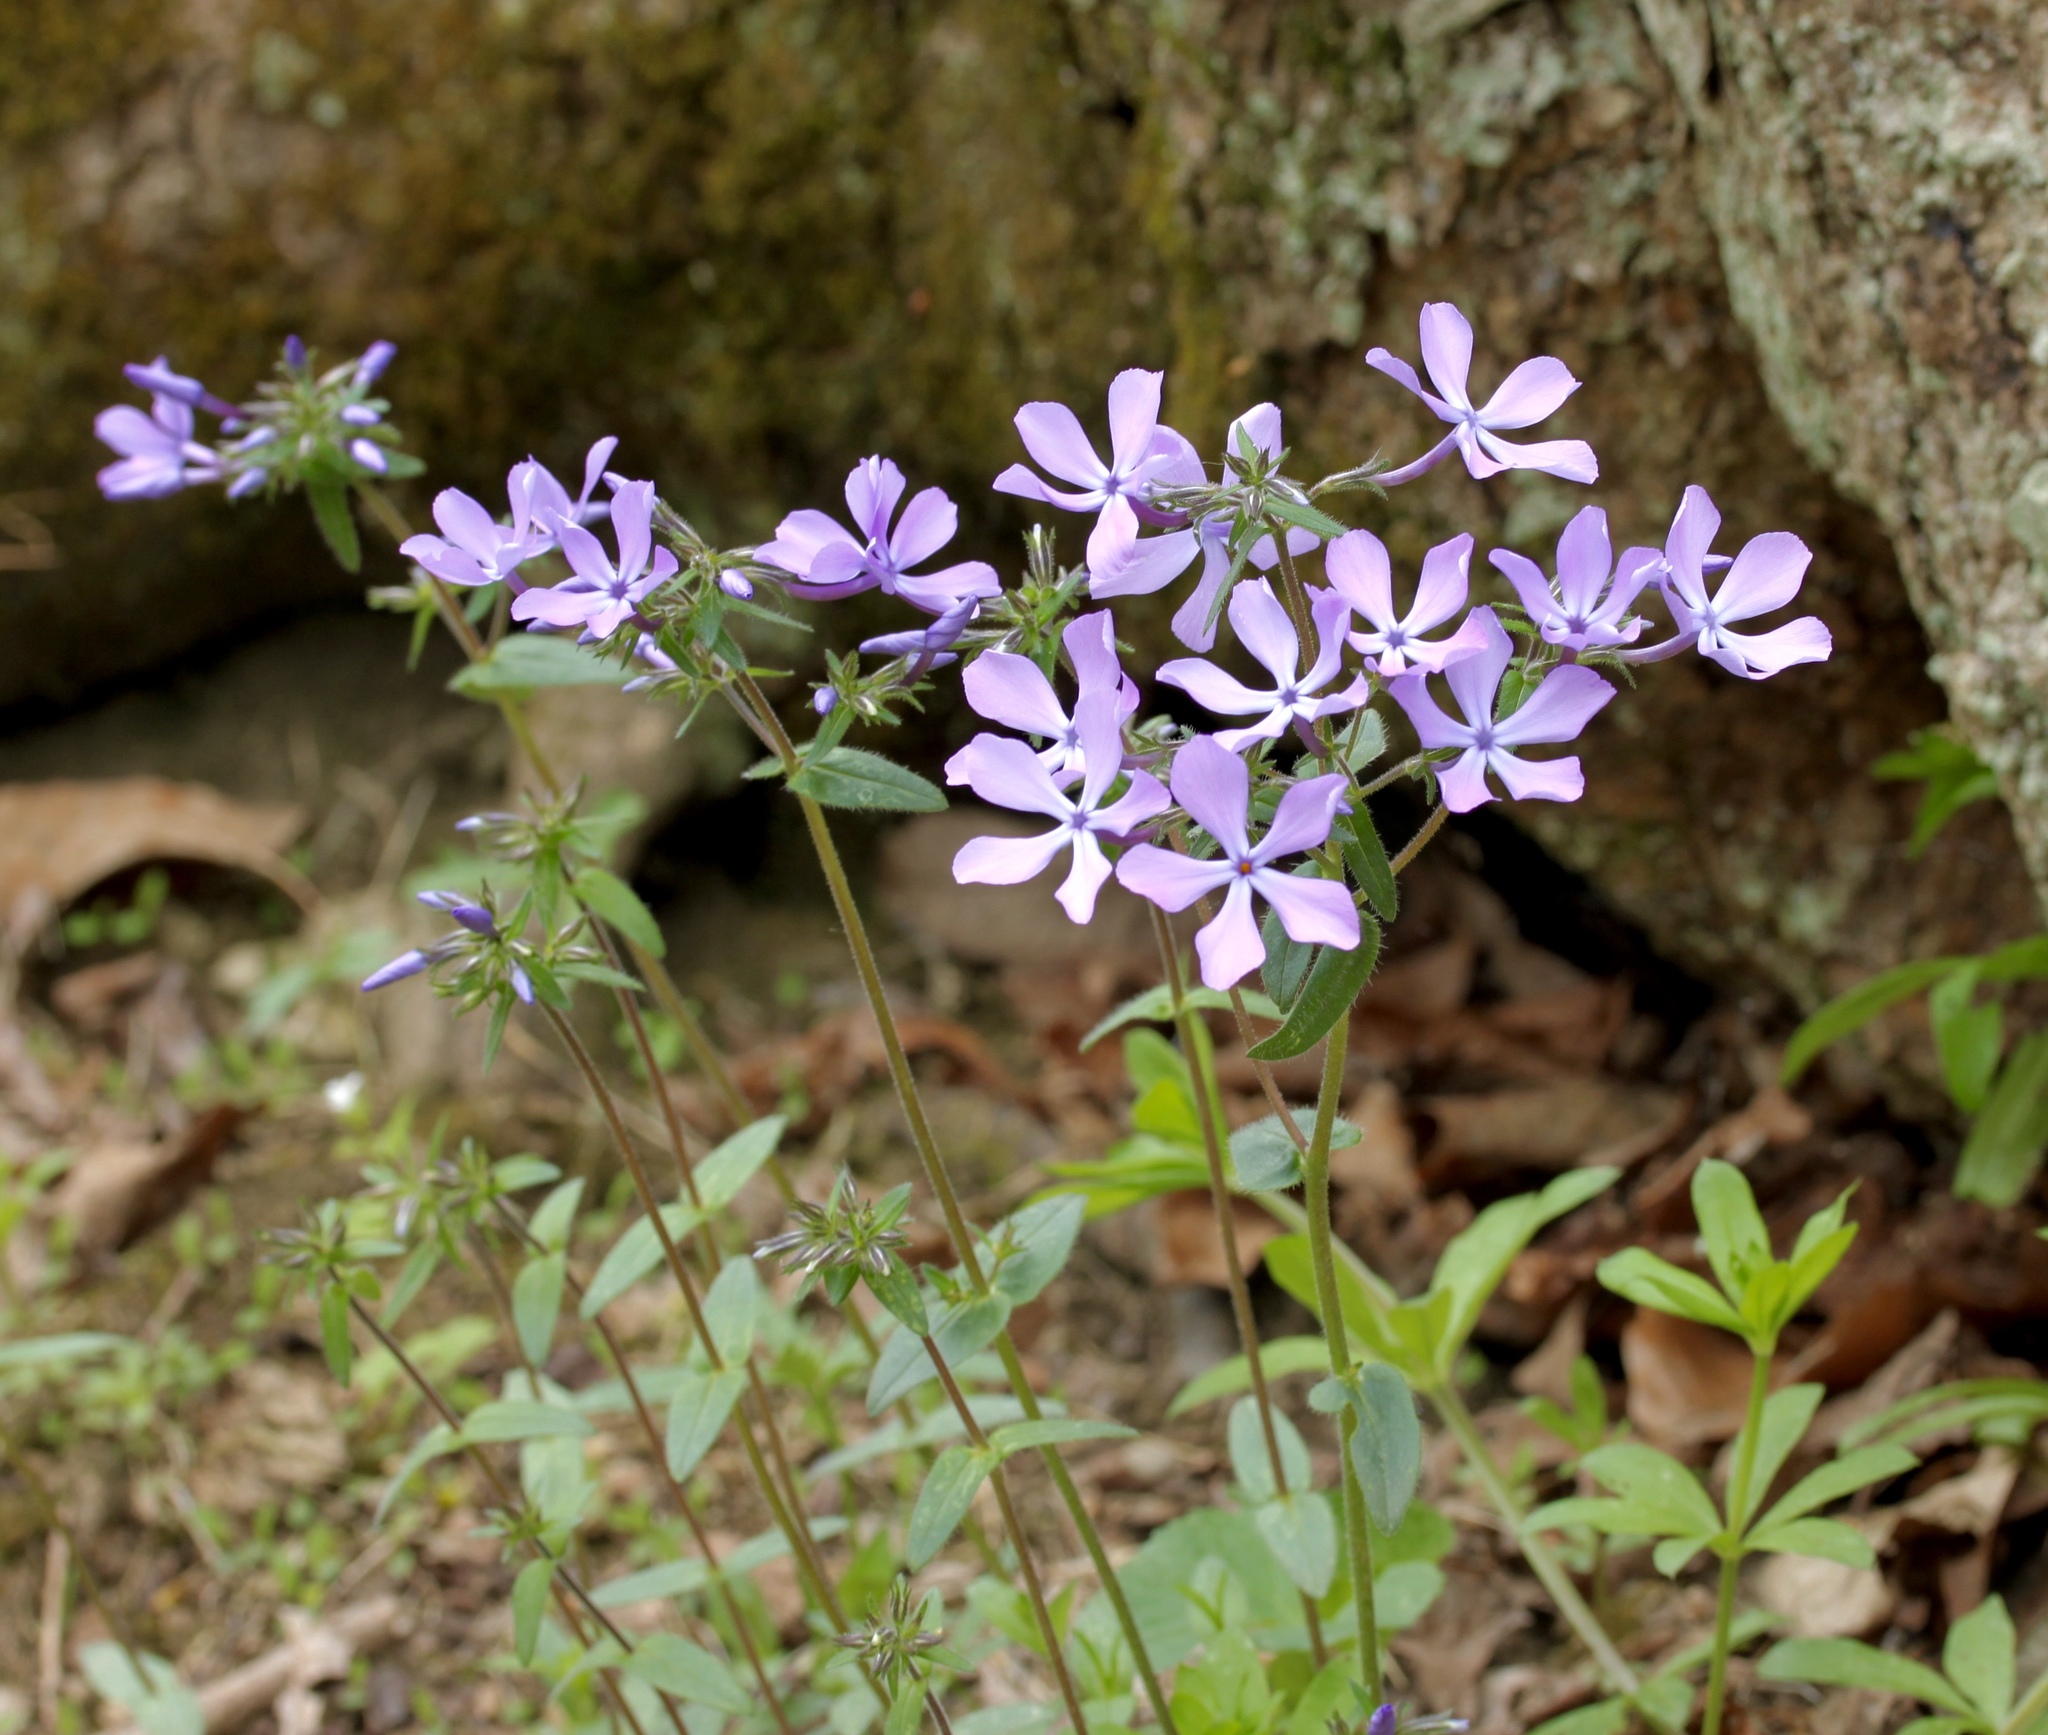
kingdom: Plantae
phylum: Tracheophyta
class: Magnoliopsida
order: Ericales
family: Polemoniaceae
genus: Phlox
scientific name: Phlox divaricata
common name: Blue phlox
